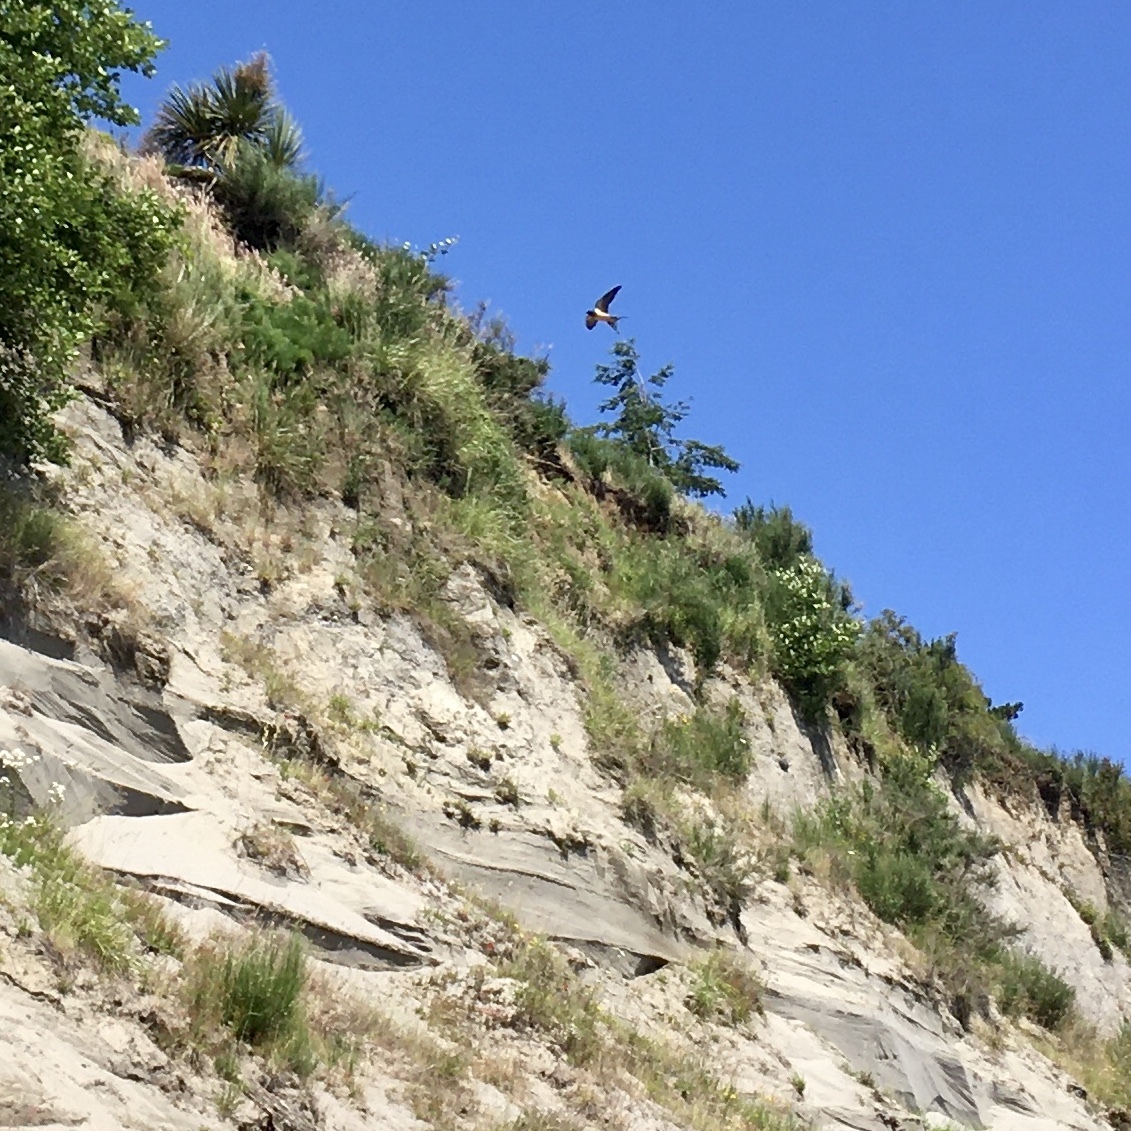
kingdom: Animalia
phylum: Chordata
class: Aves
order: Passeriformes
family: Hirundinidae
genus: Hirundo
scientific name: Hirundo rustica
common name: Barn swallow
